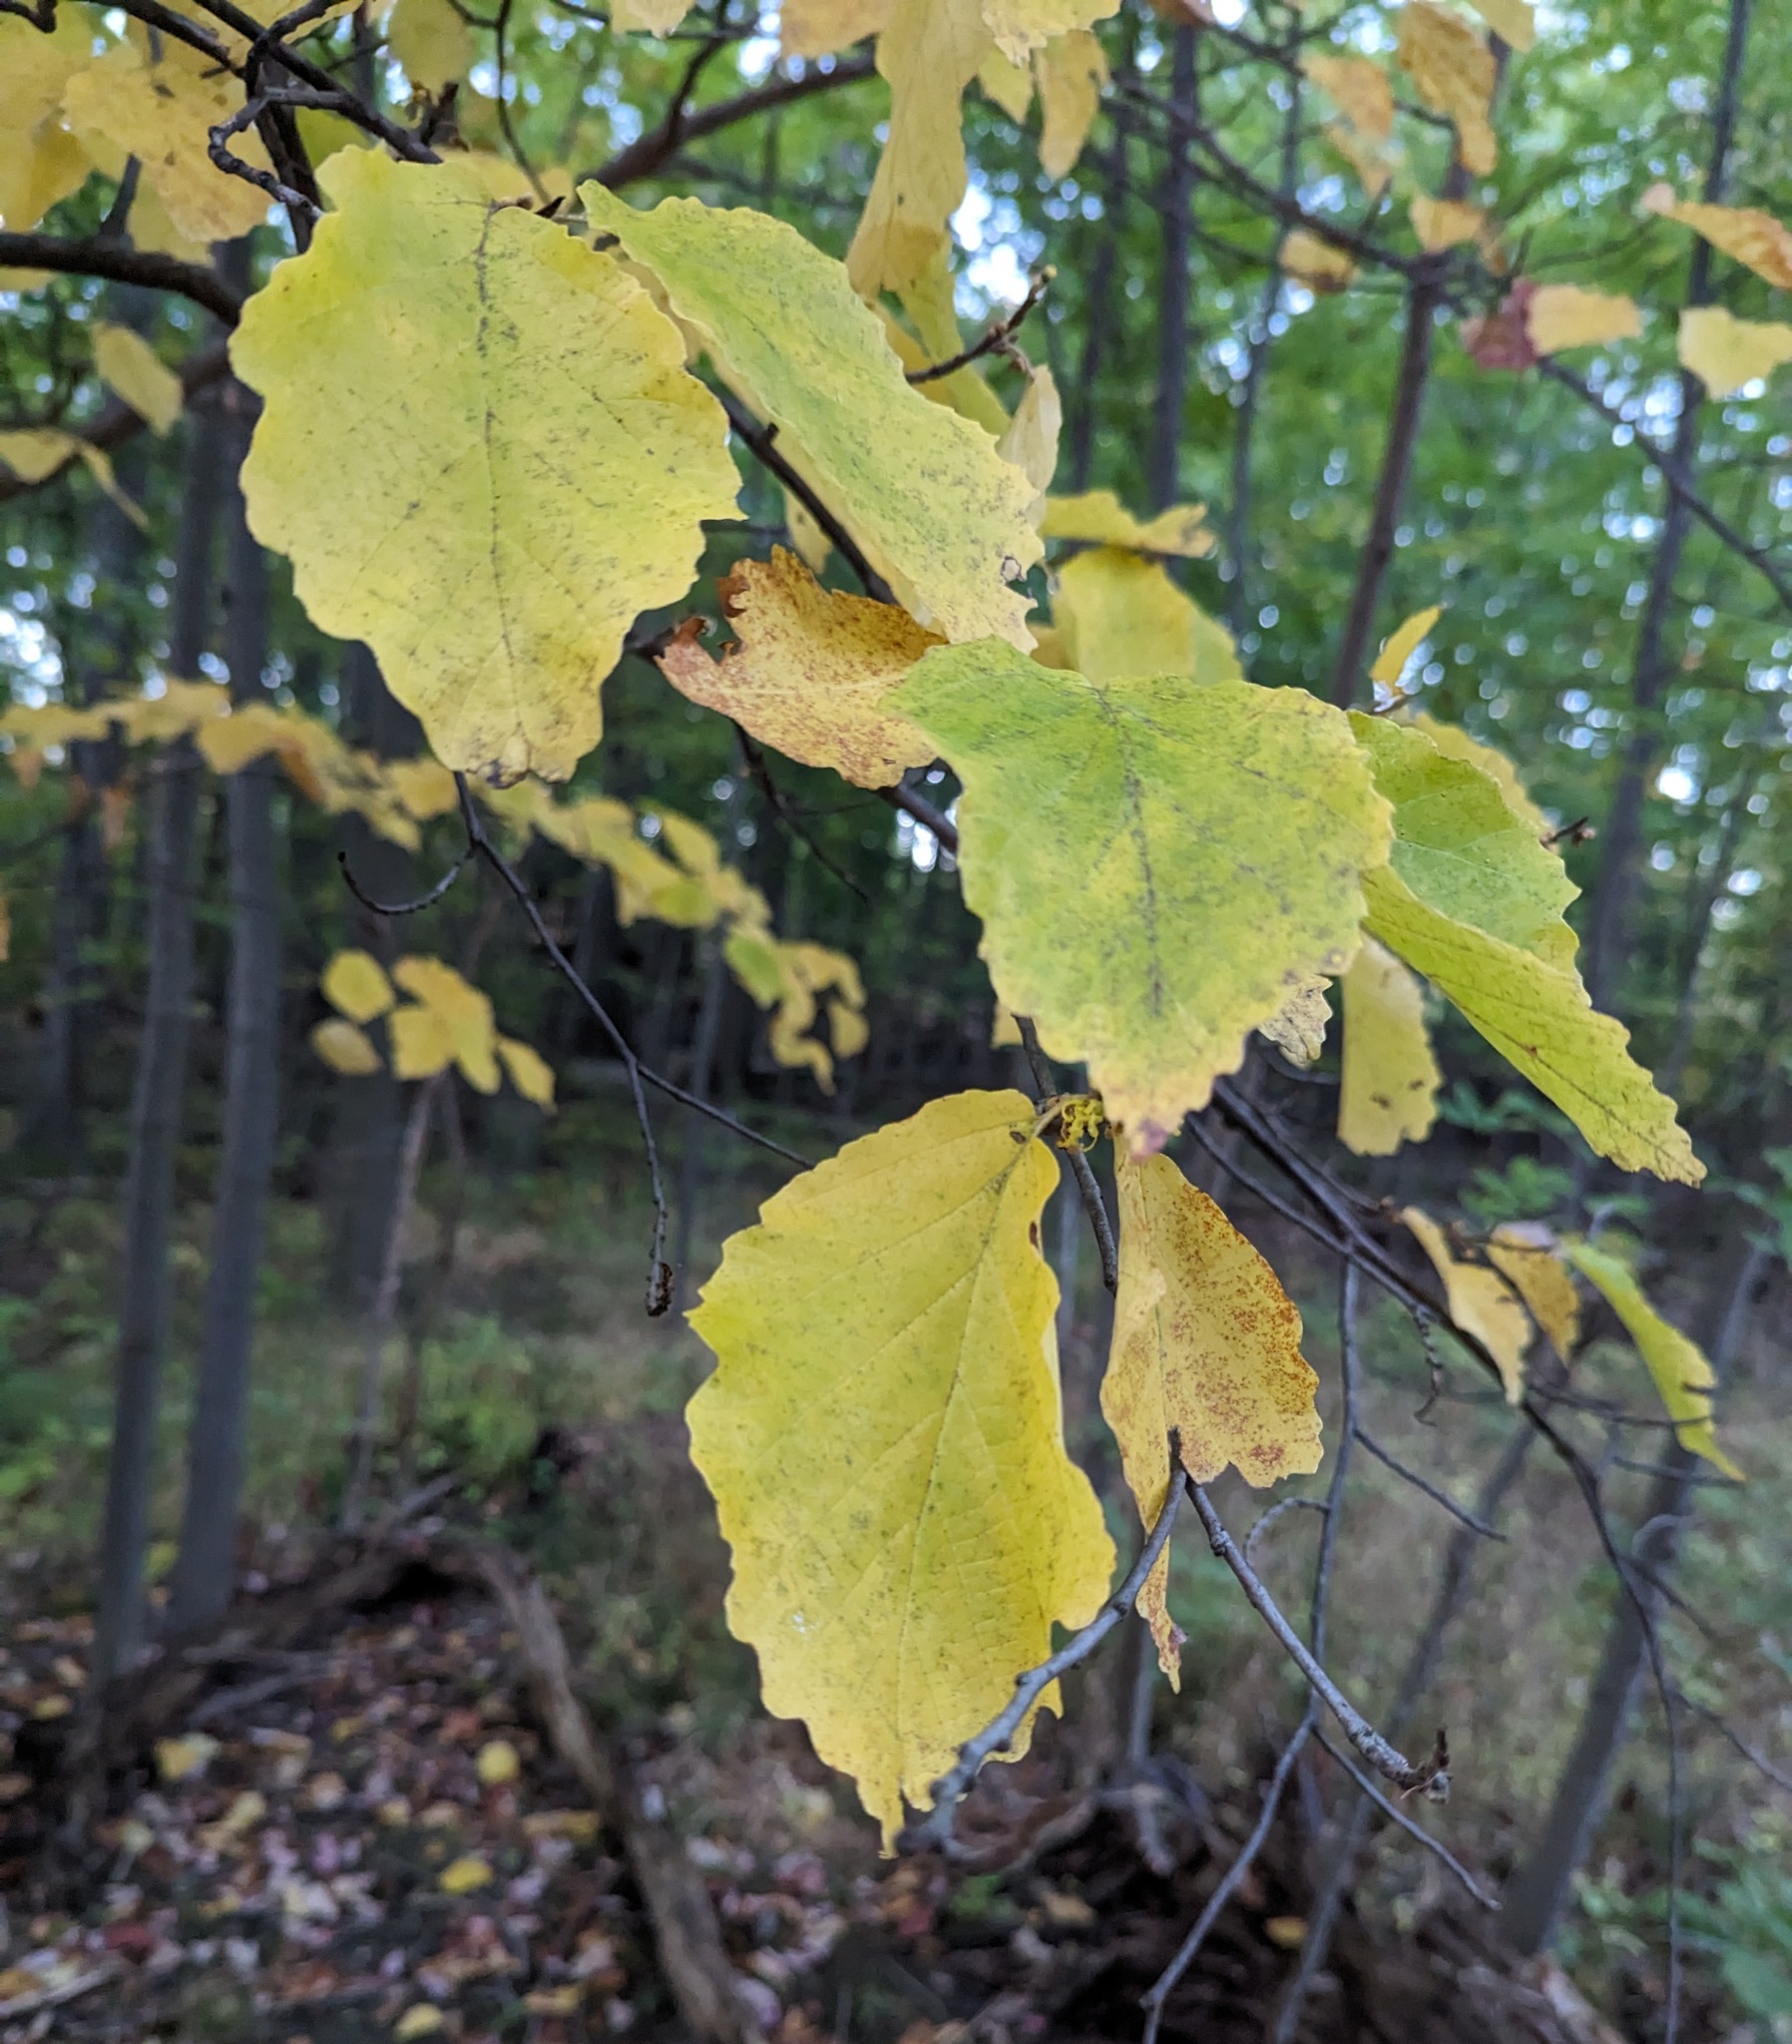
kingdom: Plantae
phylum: Tracheophyta
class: Magnoliopsida
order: Saxifragales
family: Hamamelidaceae
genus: Hamamelis
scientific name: Hamamelis virginiana
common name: Witch-hazel
